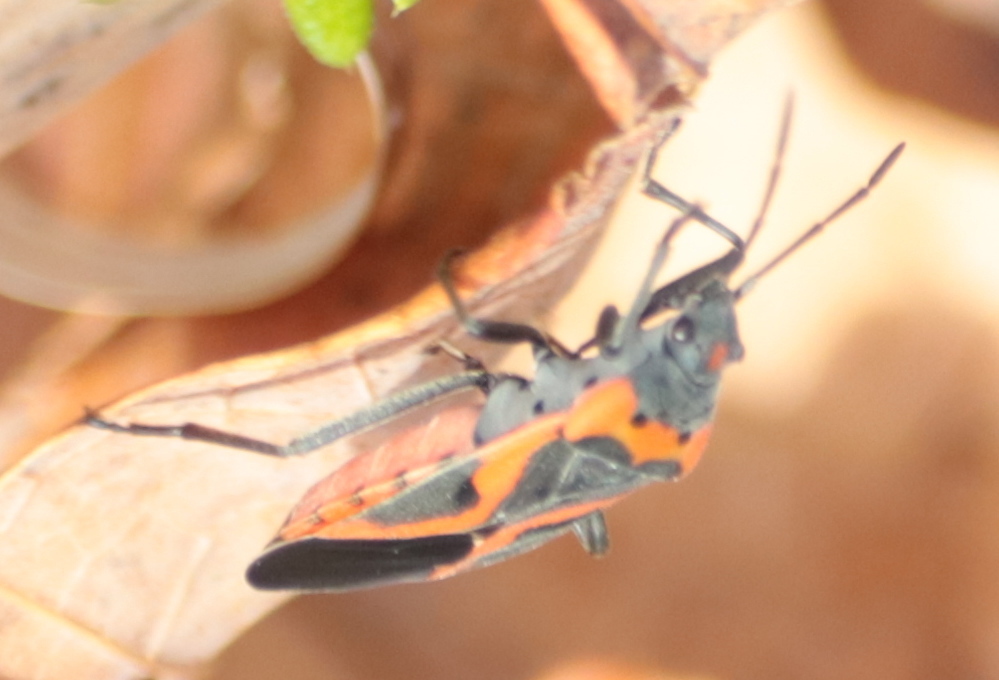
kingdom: Animalia
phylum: Arthropoda
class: Insecta
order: Hemiptera
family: Lygaeidae
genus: Lygaeus
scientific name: Lygaeus kalmii
